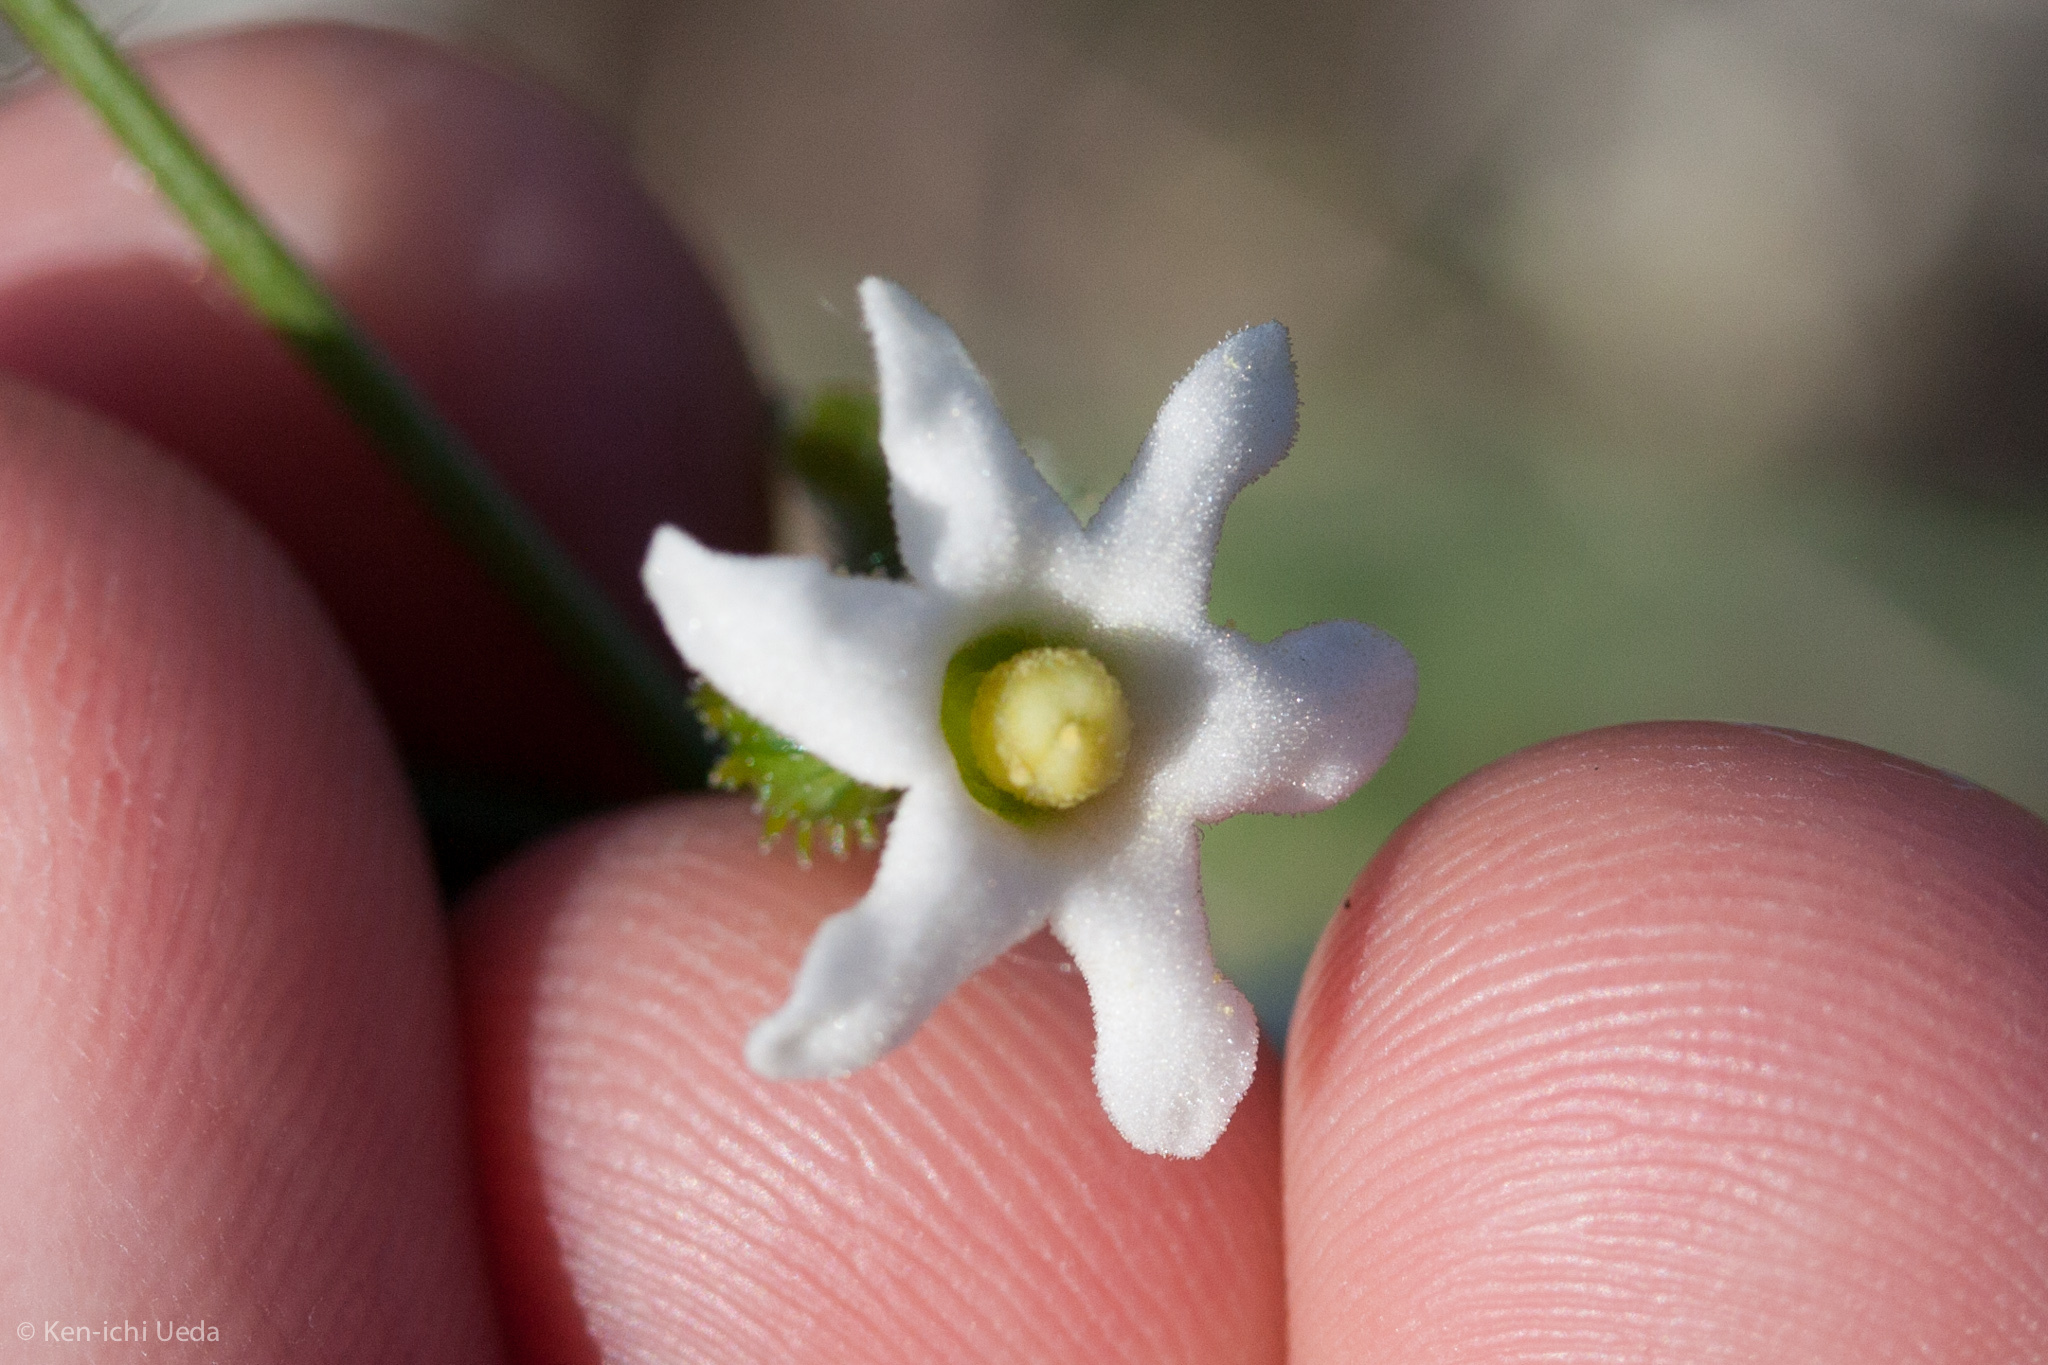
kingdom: Plantae
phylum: Tracheophyta
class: Magnoliopsida
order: Cucurbitales
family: Cucurbitaceae
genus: Marah
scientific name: Marah watsonii
